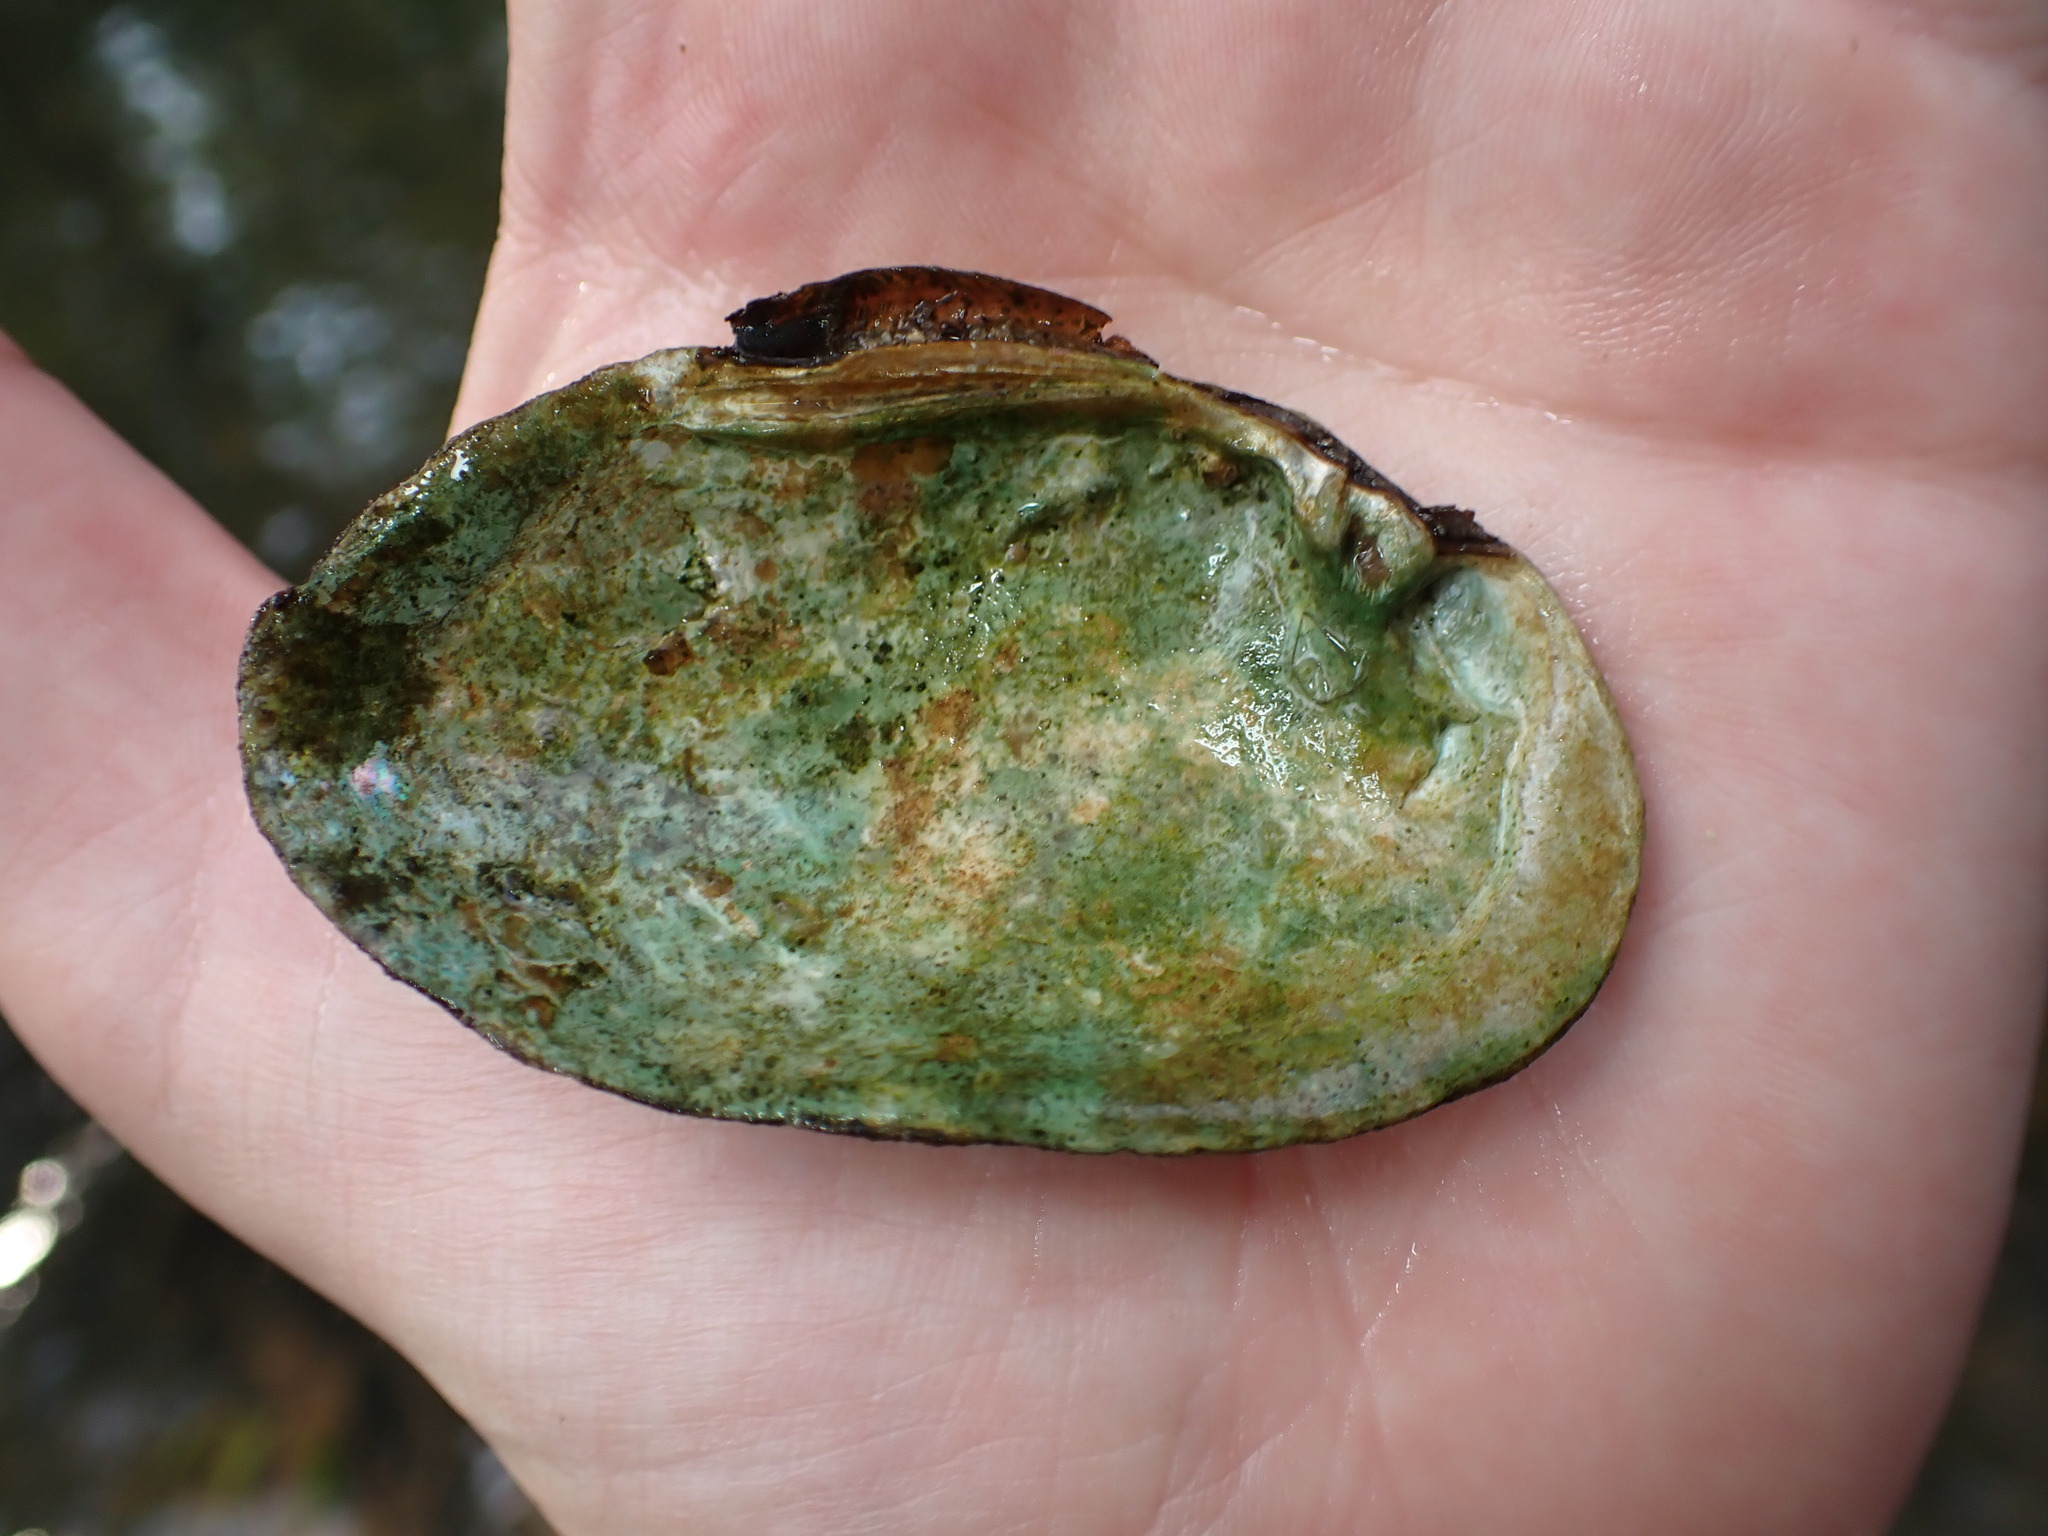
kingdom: Animalia
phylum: Mollusca
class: Bivalvia
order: Unionida
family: Unionidae
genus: Lampsilis
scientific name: Lampsilis fasciola
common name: Wavyrayed lampmussel
